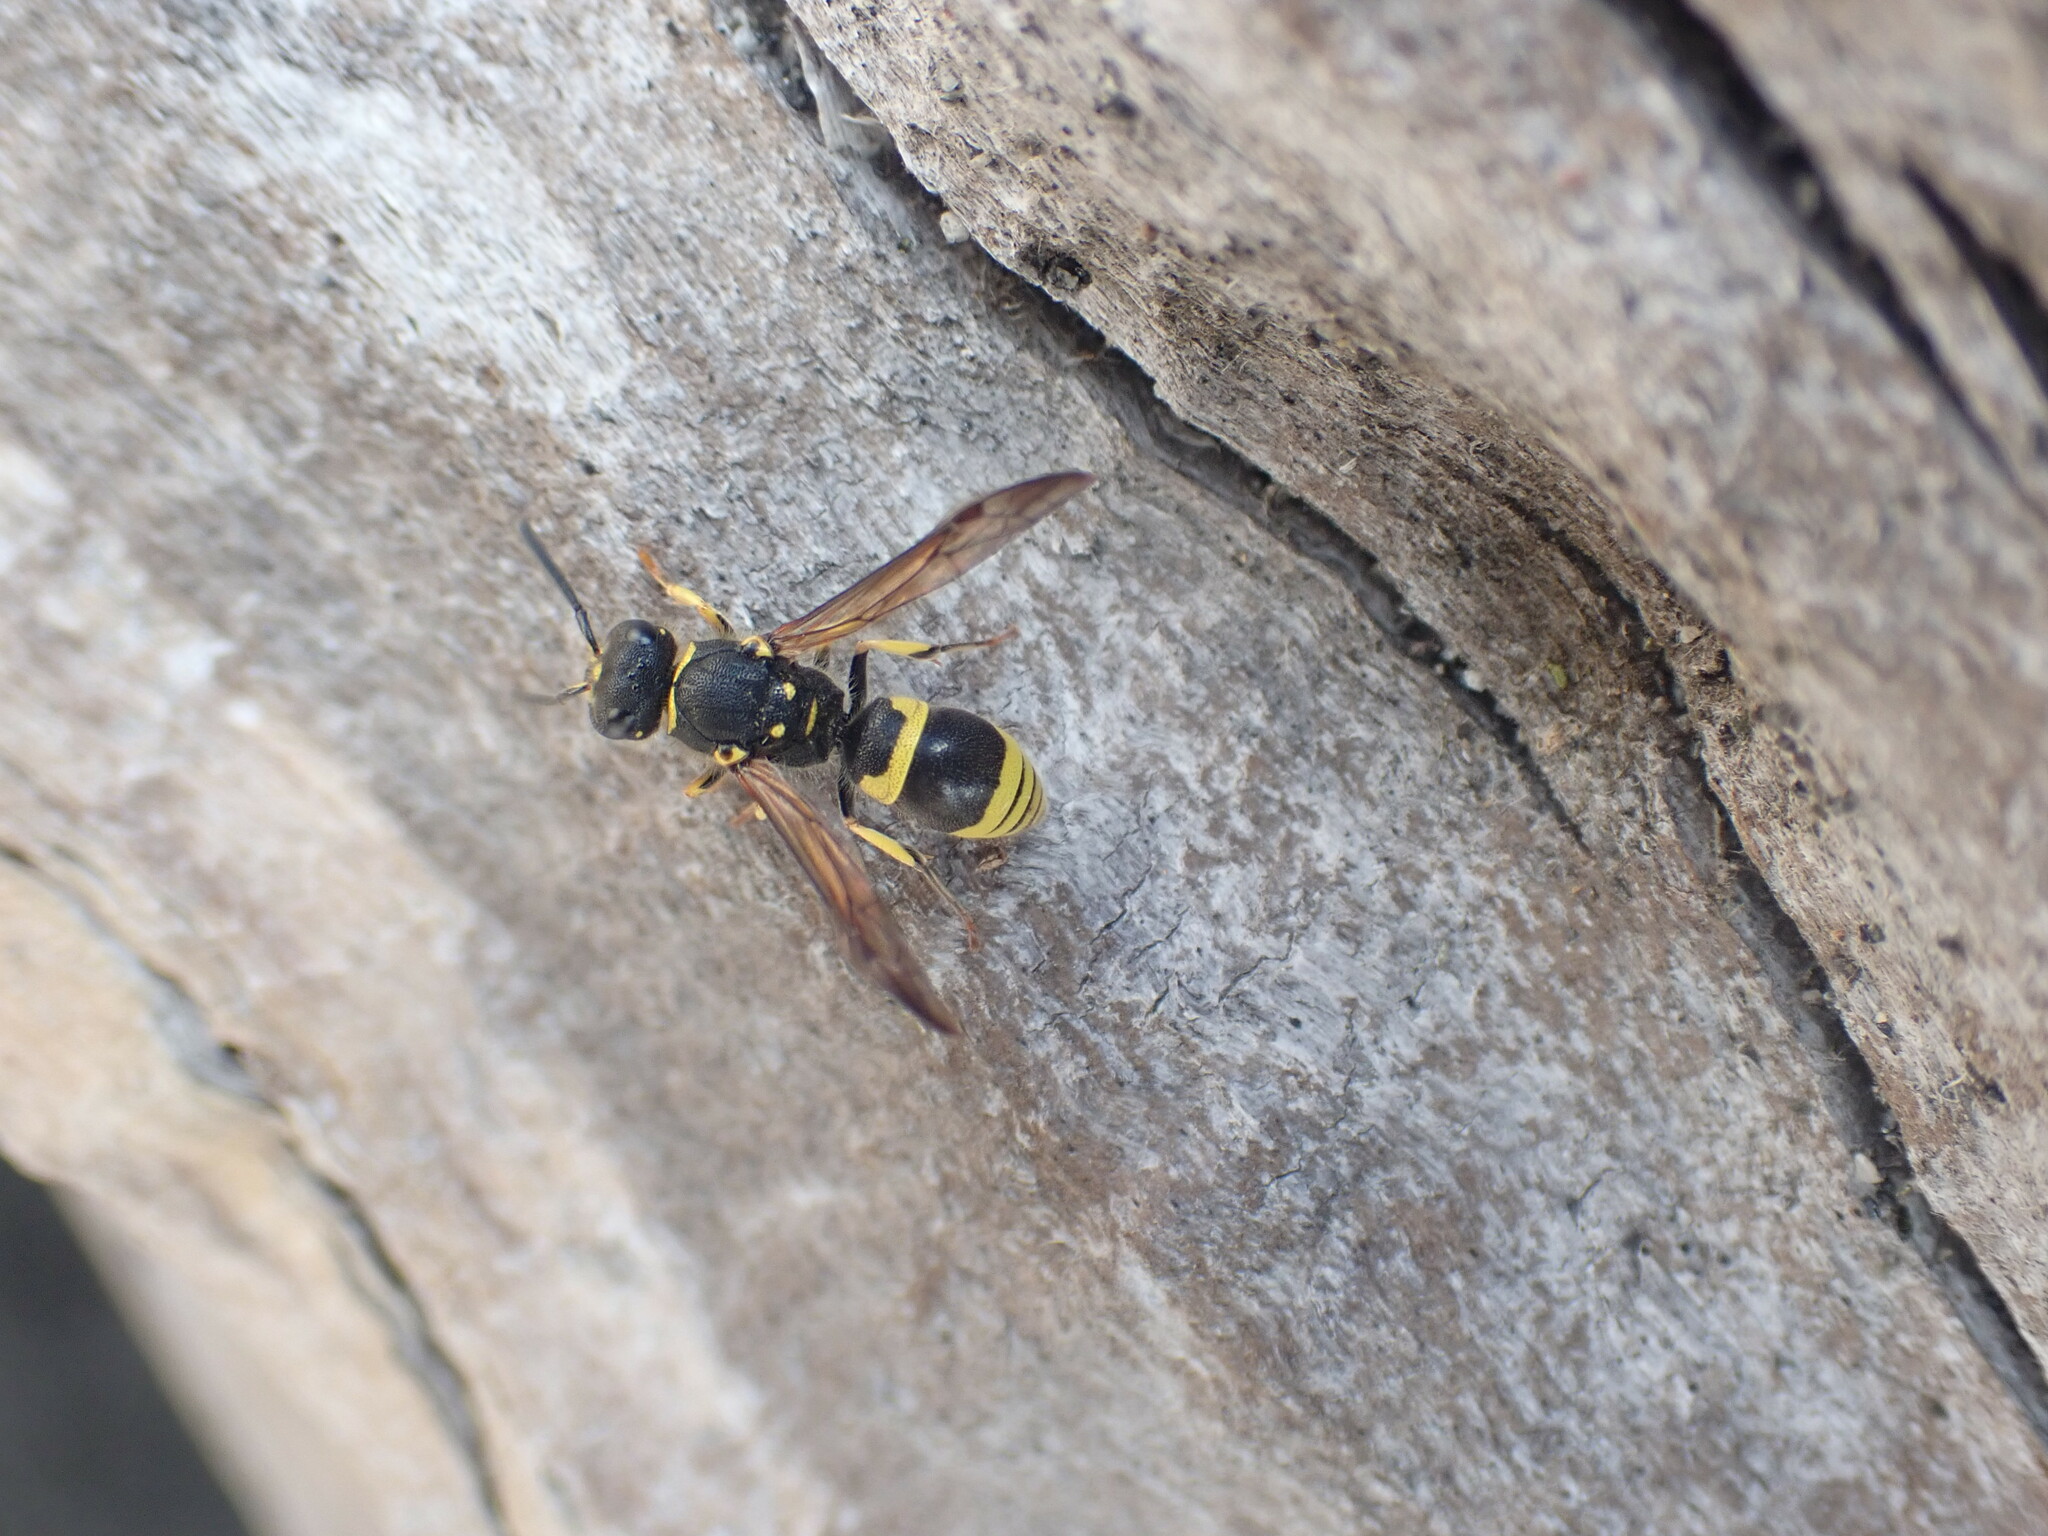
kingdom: Animalia
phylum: Arthropoda
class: Insecta
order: Hymenoptera
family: Vespidae
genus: Ancistrocerus
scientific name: Ancistrocerus gazella
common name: European tube wasp
